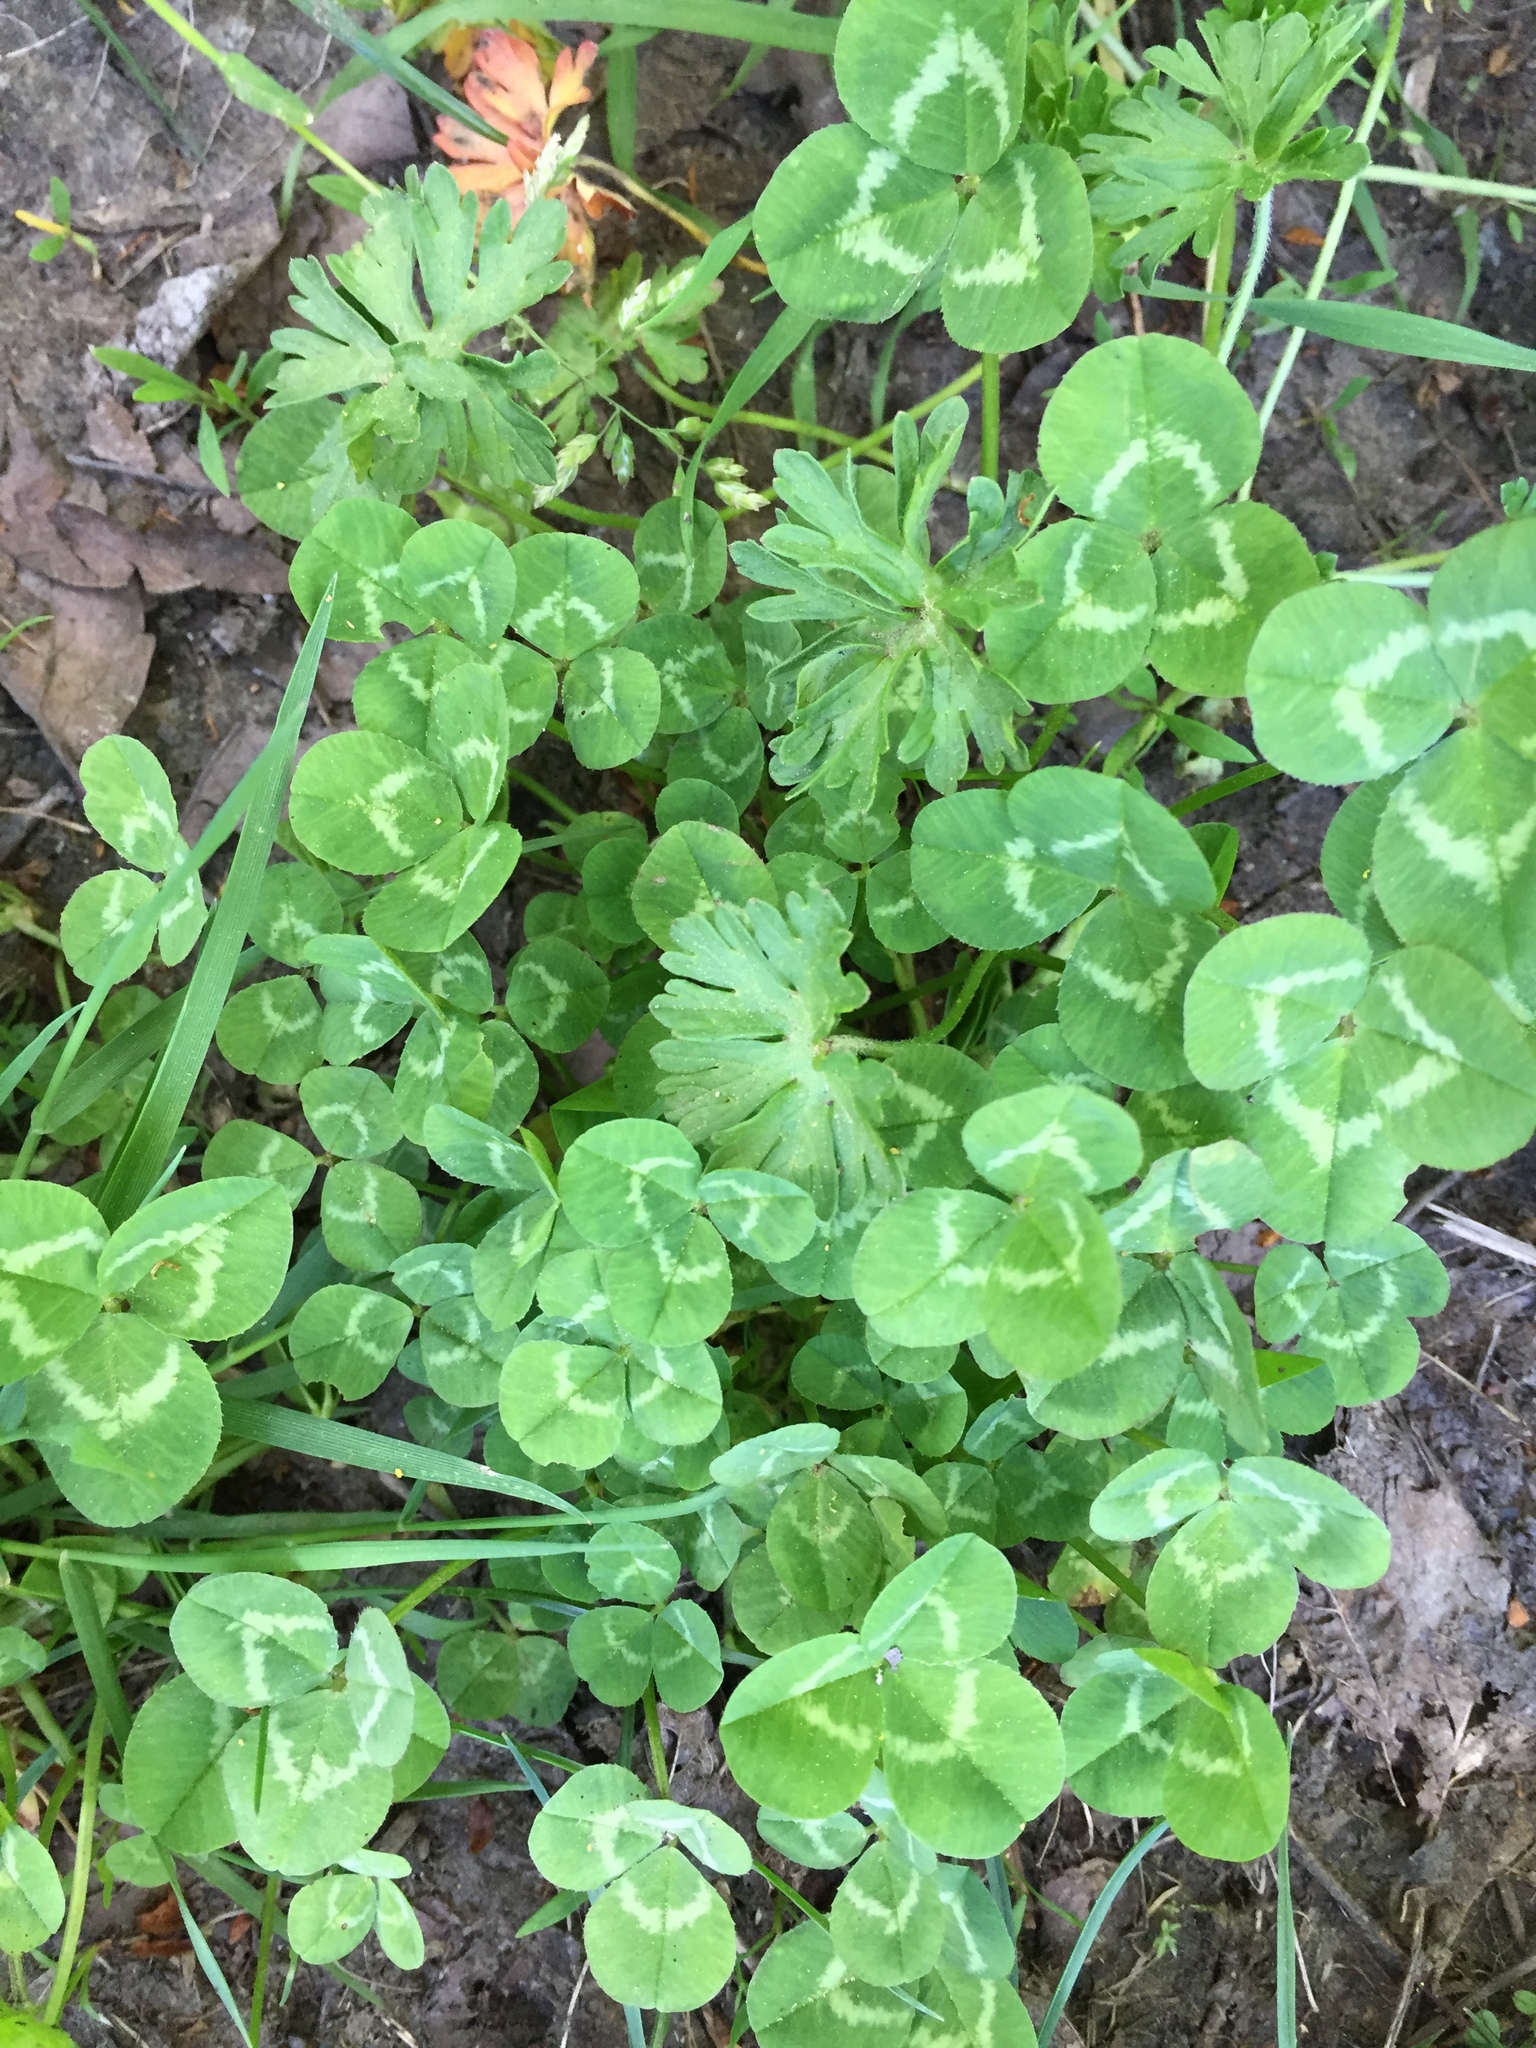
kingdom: Plantae
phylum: Tracheophyta
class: Magnoliopsida
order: Fabales
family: Fabaceae
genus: Trifolium
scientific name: Trifolium repens
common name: White clover
